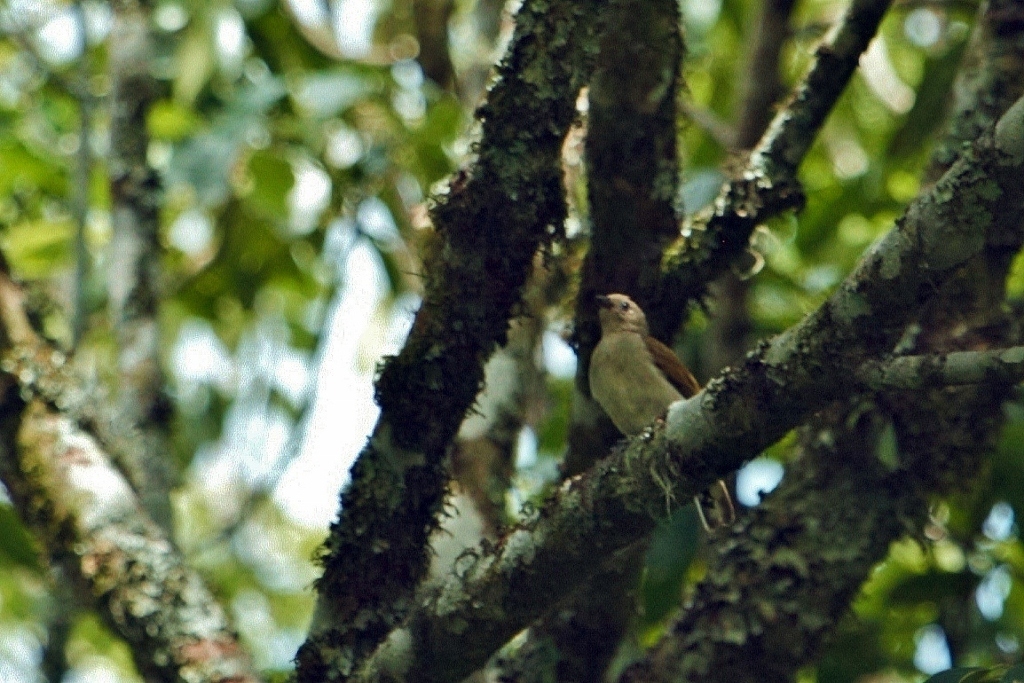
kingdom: Animalia
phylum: Chordata
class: Aves
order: Piciformes
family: Indicatoridae
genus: Indicator
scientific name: Indicator minor
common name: Lesser honeyguide
